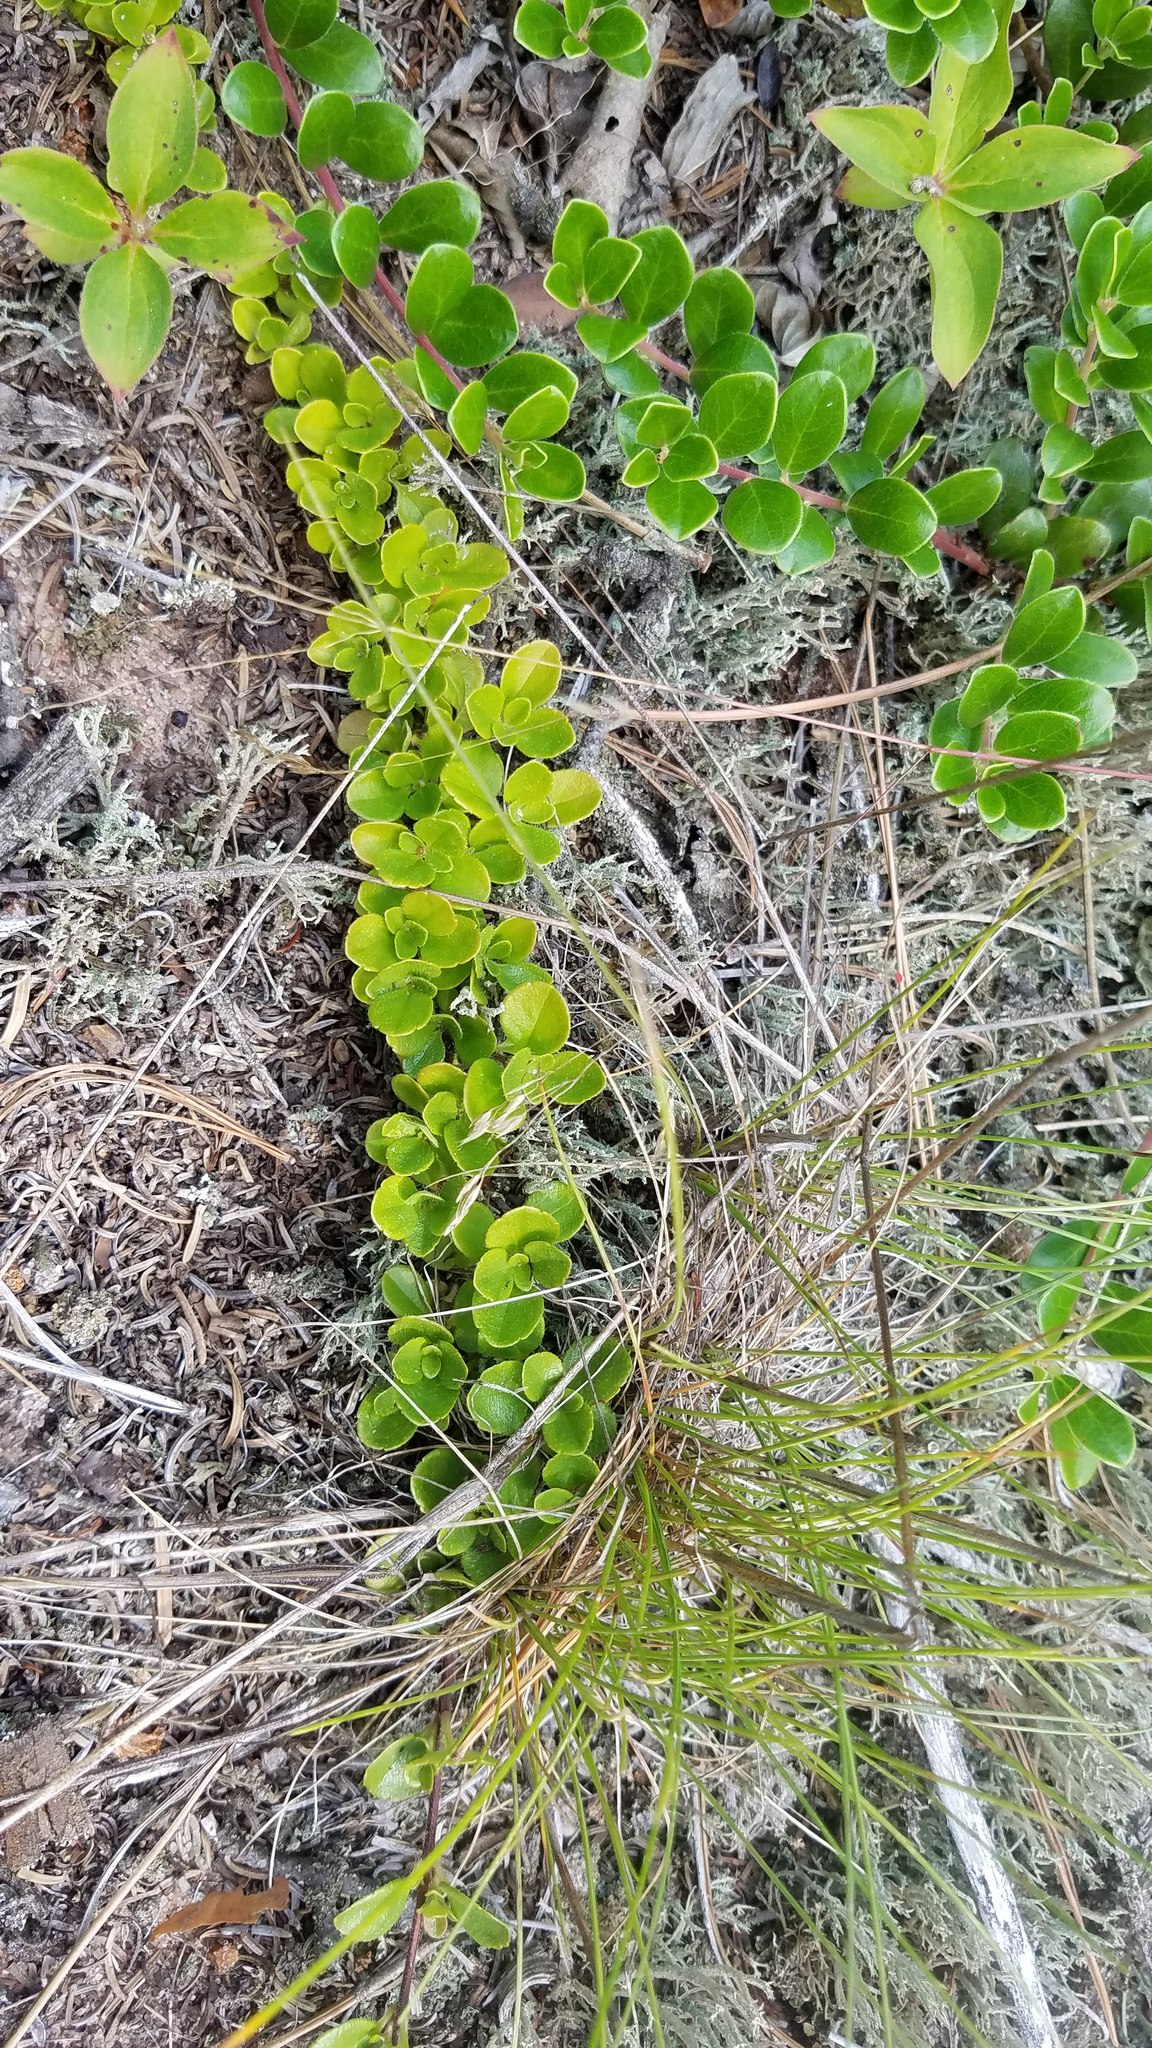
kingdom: Plantae
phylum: Tracheophyta
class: Magnoliopsida
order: Dipsacales
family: Caprifoliaceae
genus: Linnaea
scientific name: Linnaea borealis
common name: Twinflower
